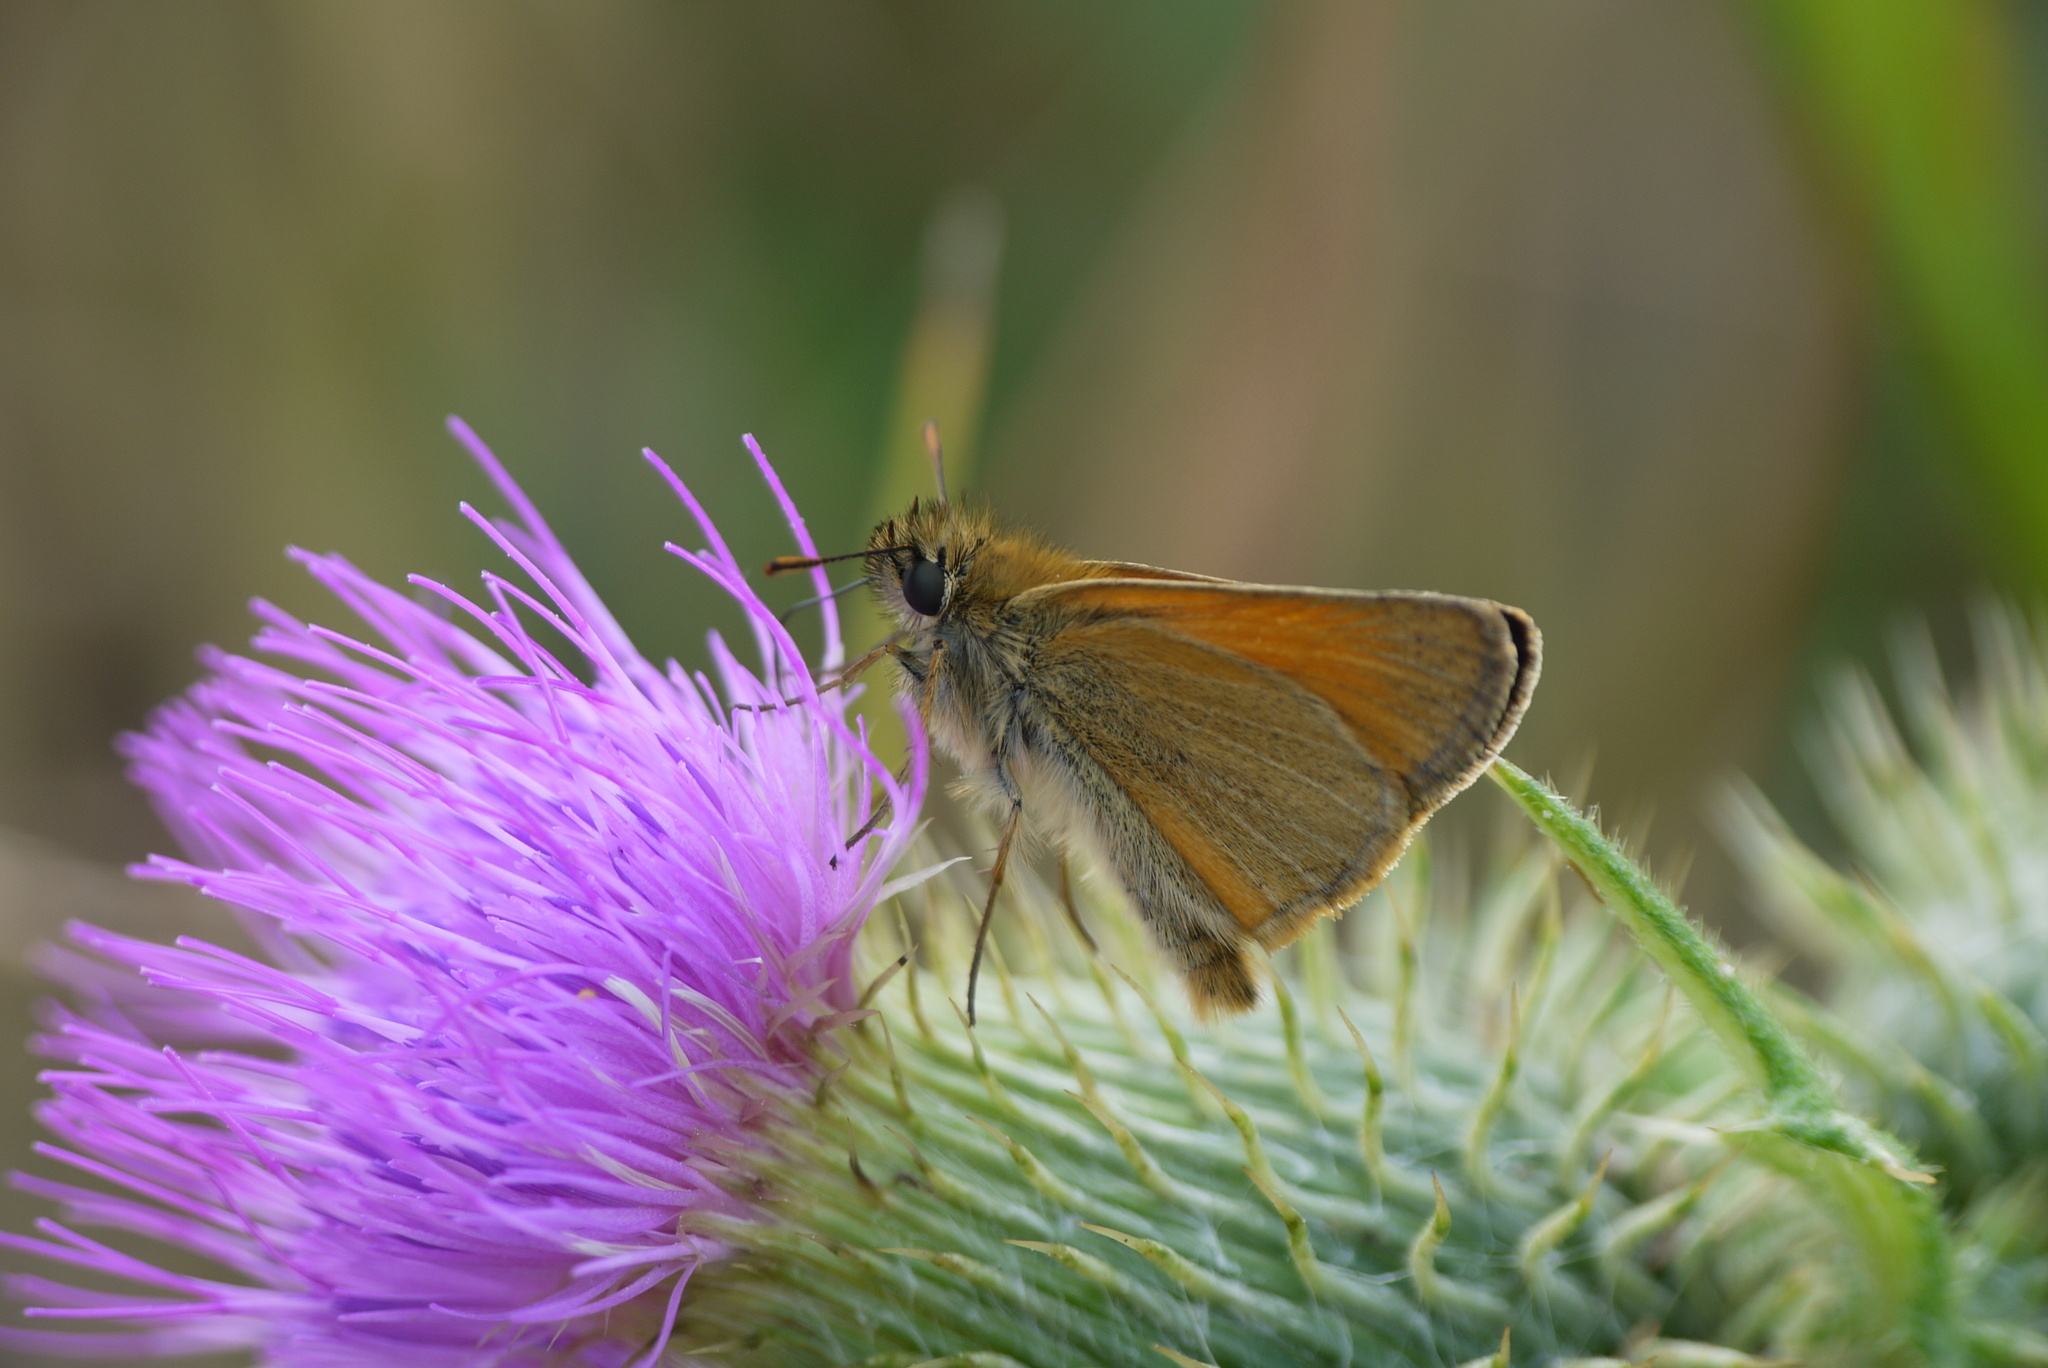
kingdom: Animalia
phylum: Arthropoda
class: Insecta
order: Lepidoptera
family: Hesperiidae
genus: Thymelicus
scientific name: Thymelicus sylvestris
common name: Small skipper
